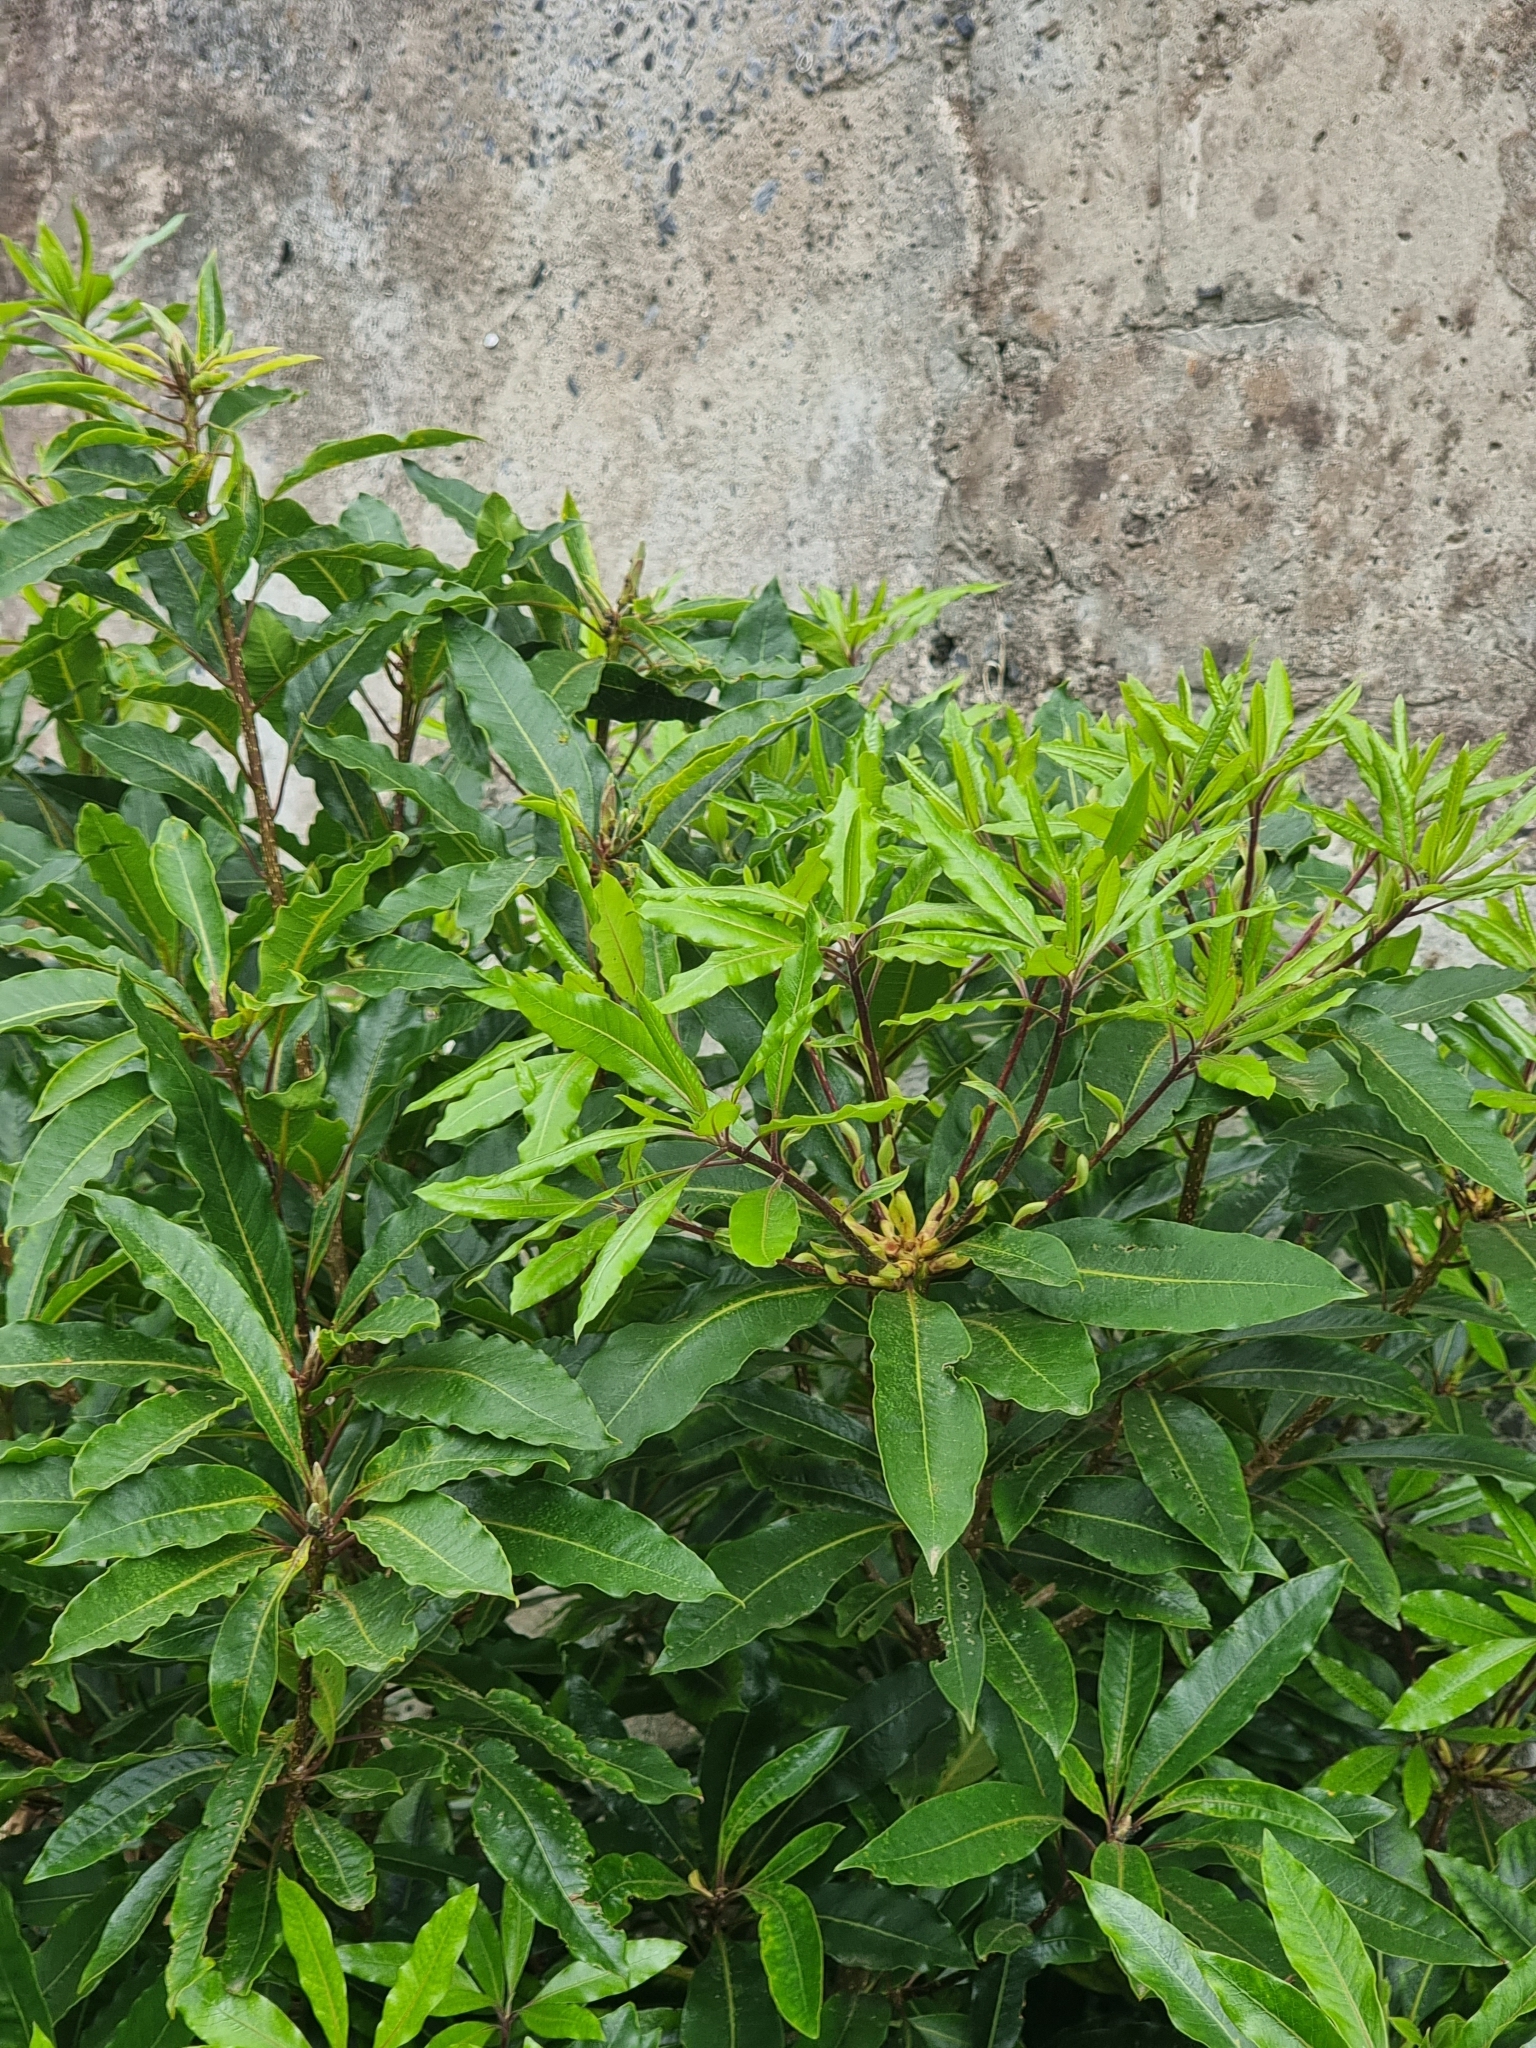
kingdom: Plantae
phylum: Tracheophyta
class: Magnoliopsida
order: Apiales
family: Pittosporaceae
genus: Pittosporum
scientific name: Pittosporum undulatum
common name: Australian cheesewood
